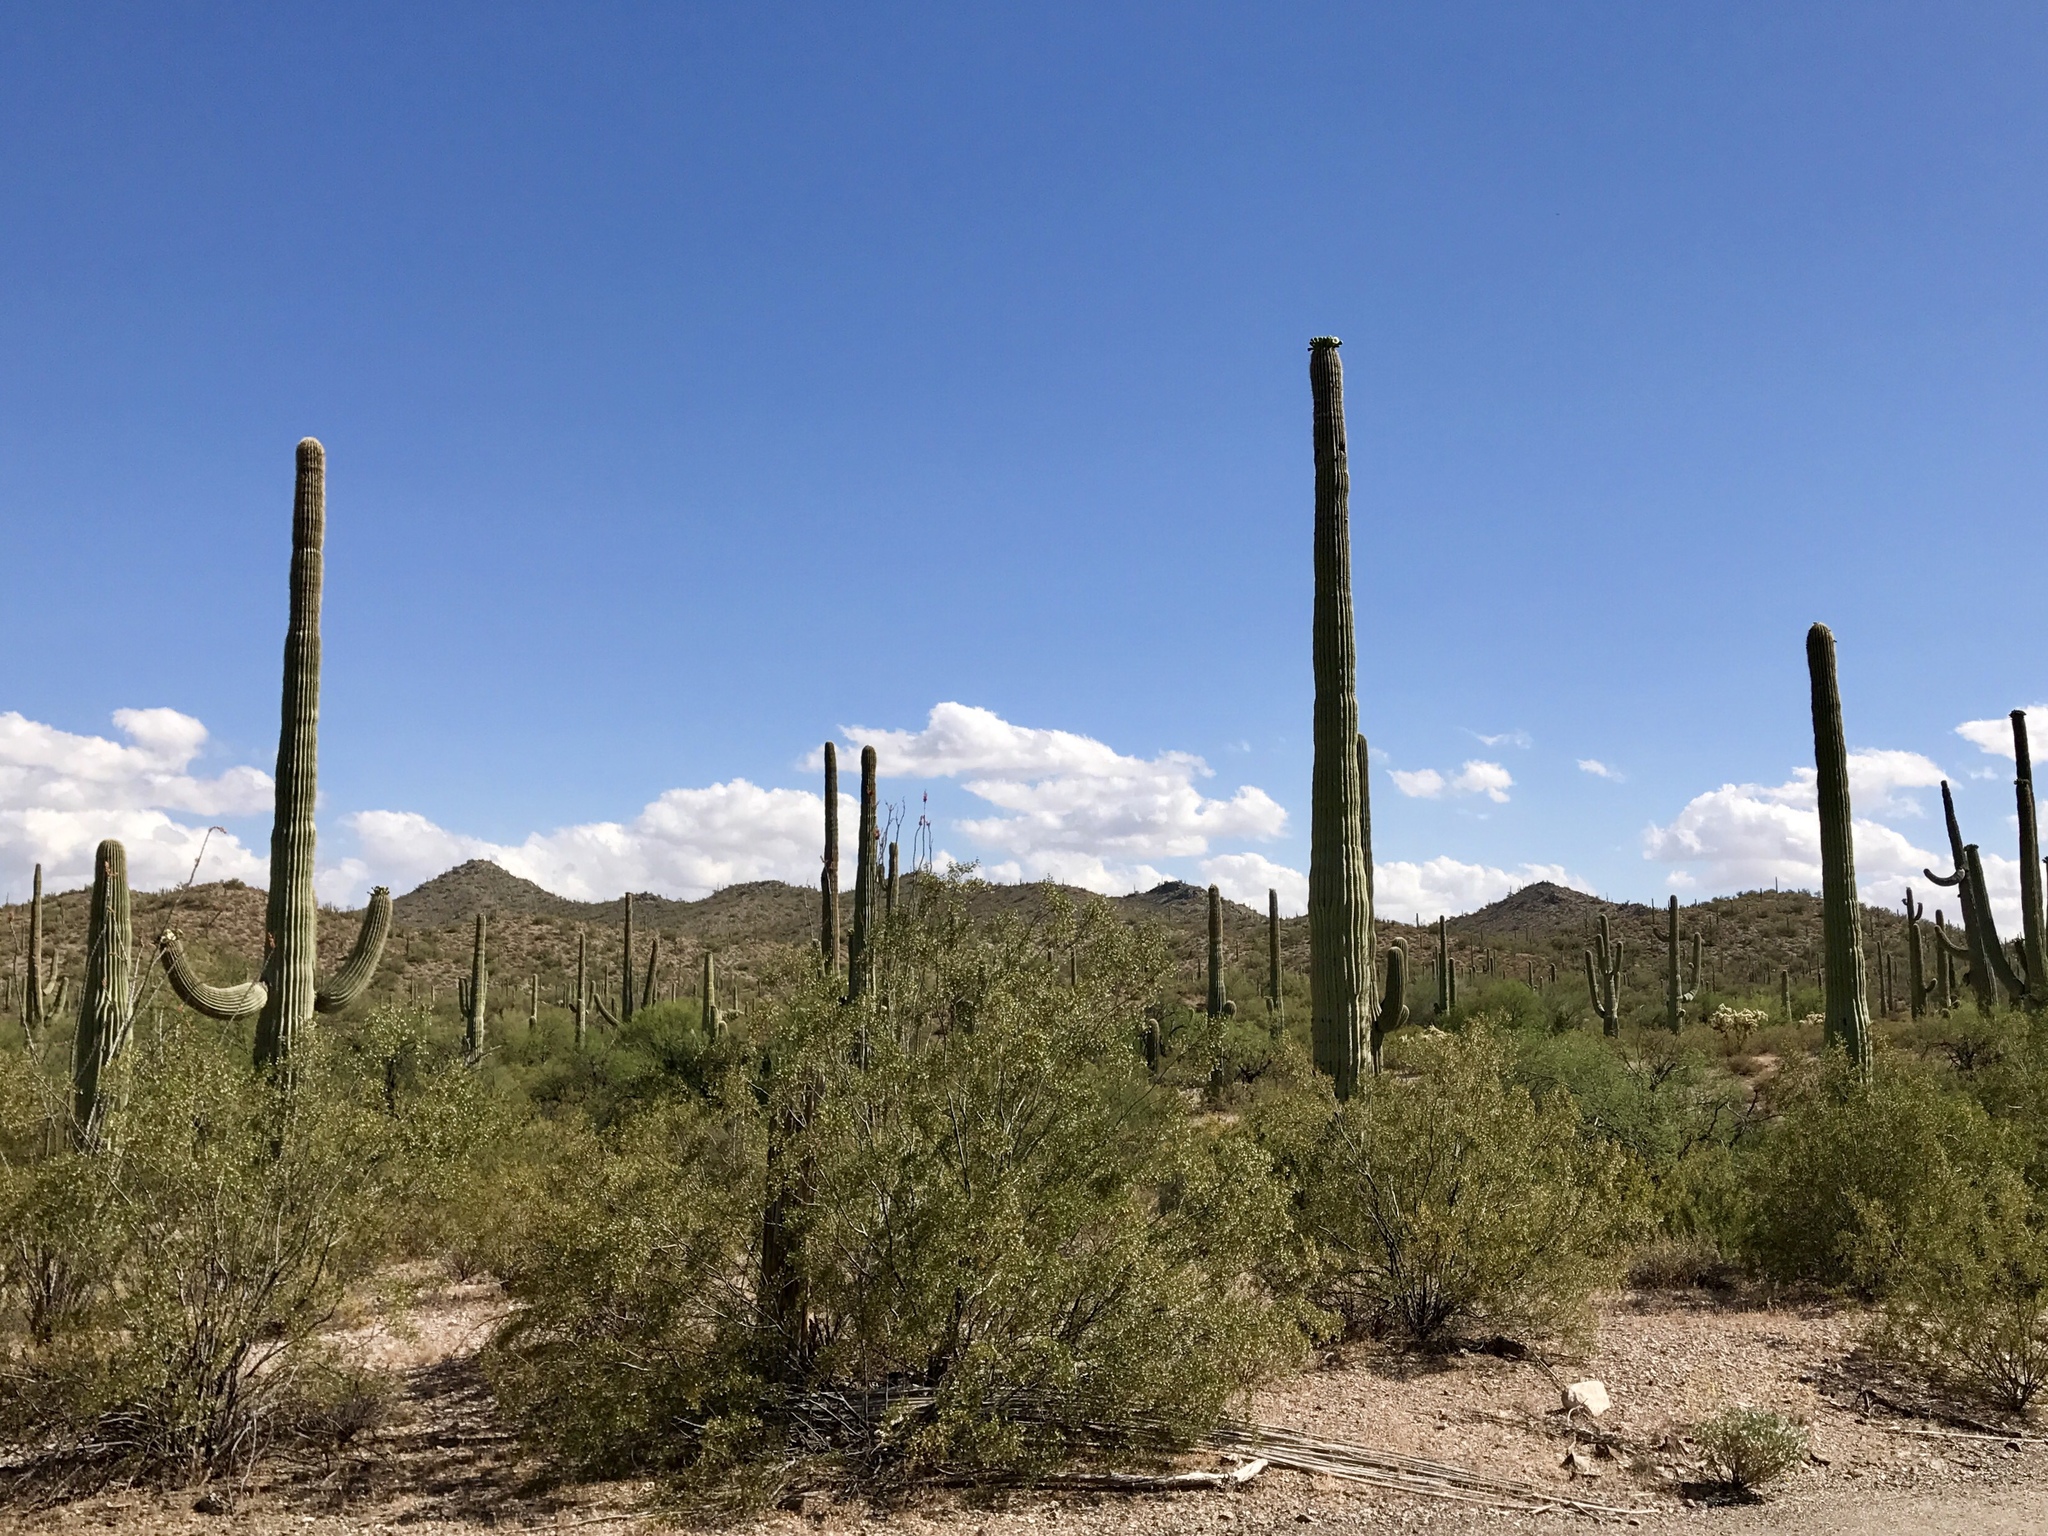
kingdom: Plantae
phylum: Tracheophyta
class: Magnoliopsida
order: Zygophyllales
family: Zygophyllaceae
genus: Larrea
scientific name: Larrea tridentata
